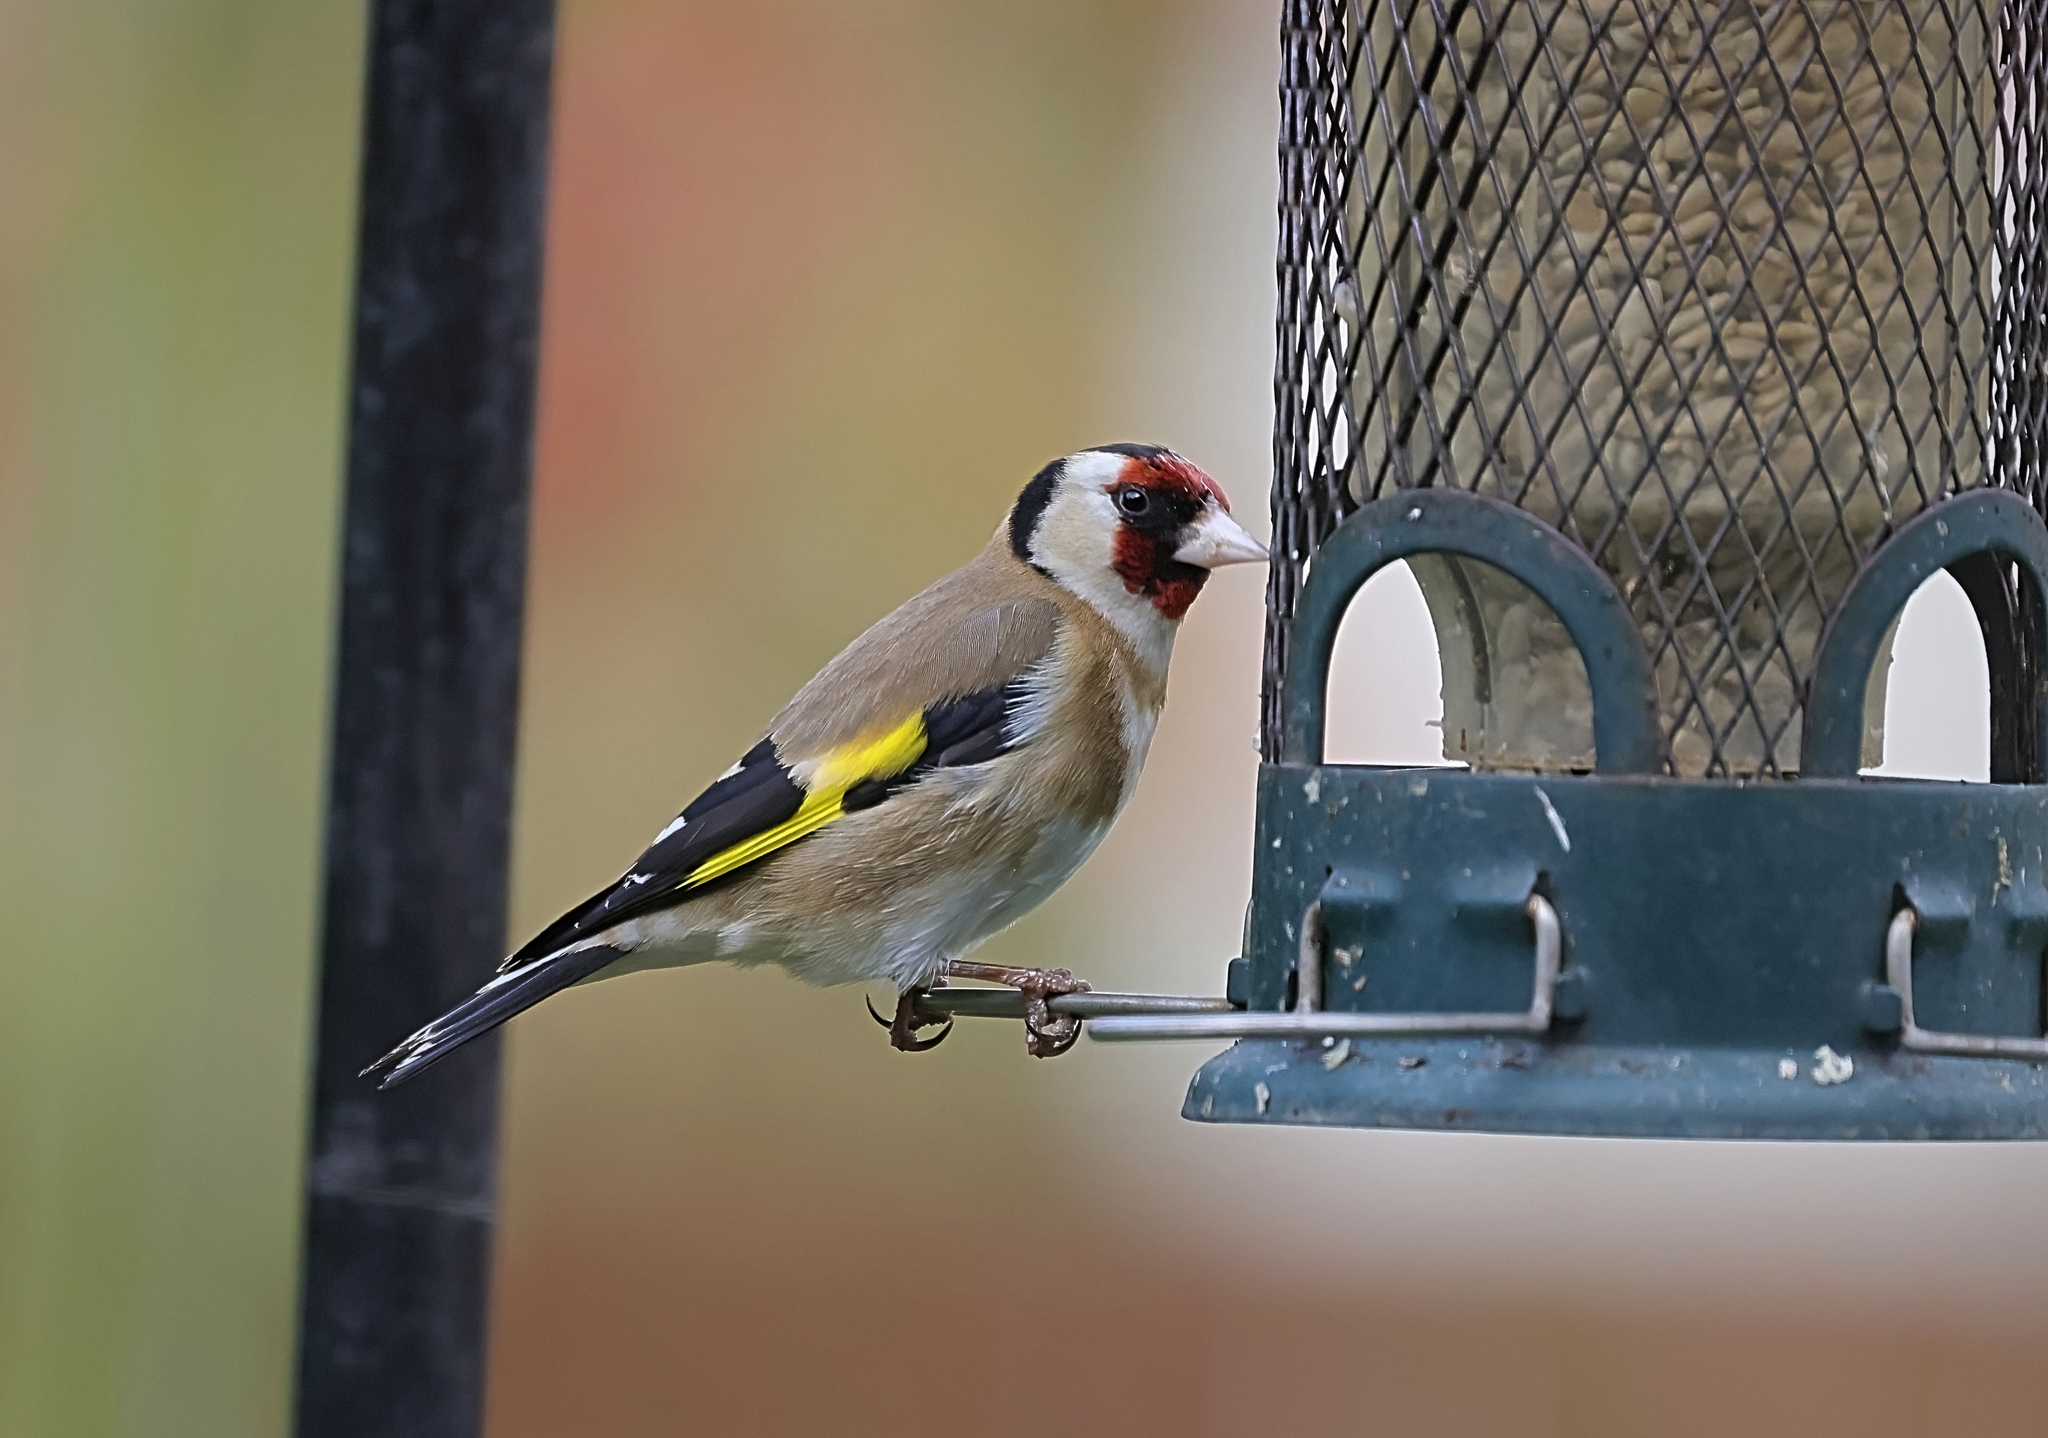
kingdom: Animalia
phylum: Chordata
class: Aves
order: Passeriformes
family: Fringillidae
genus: Carduelis
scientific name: Carduelis carduelis
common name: European goldfinch
